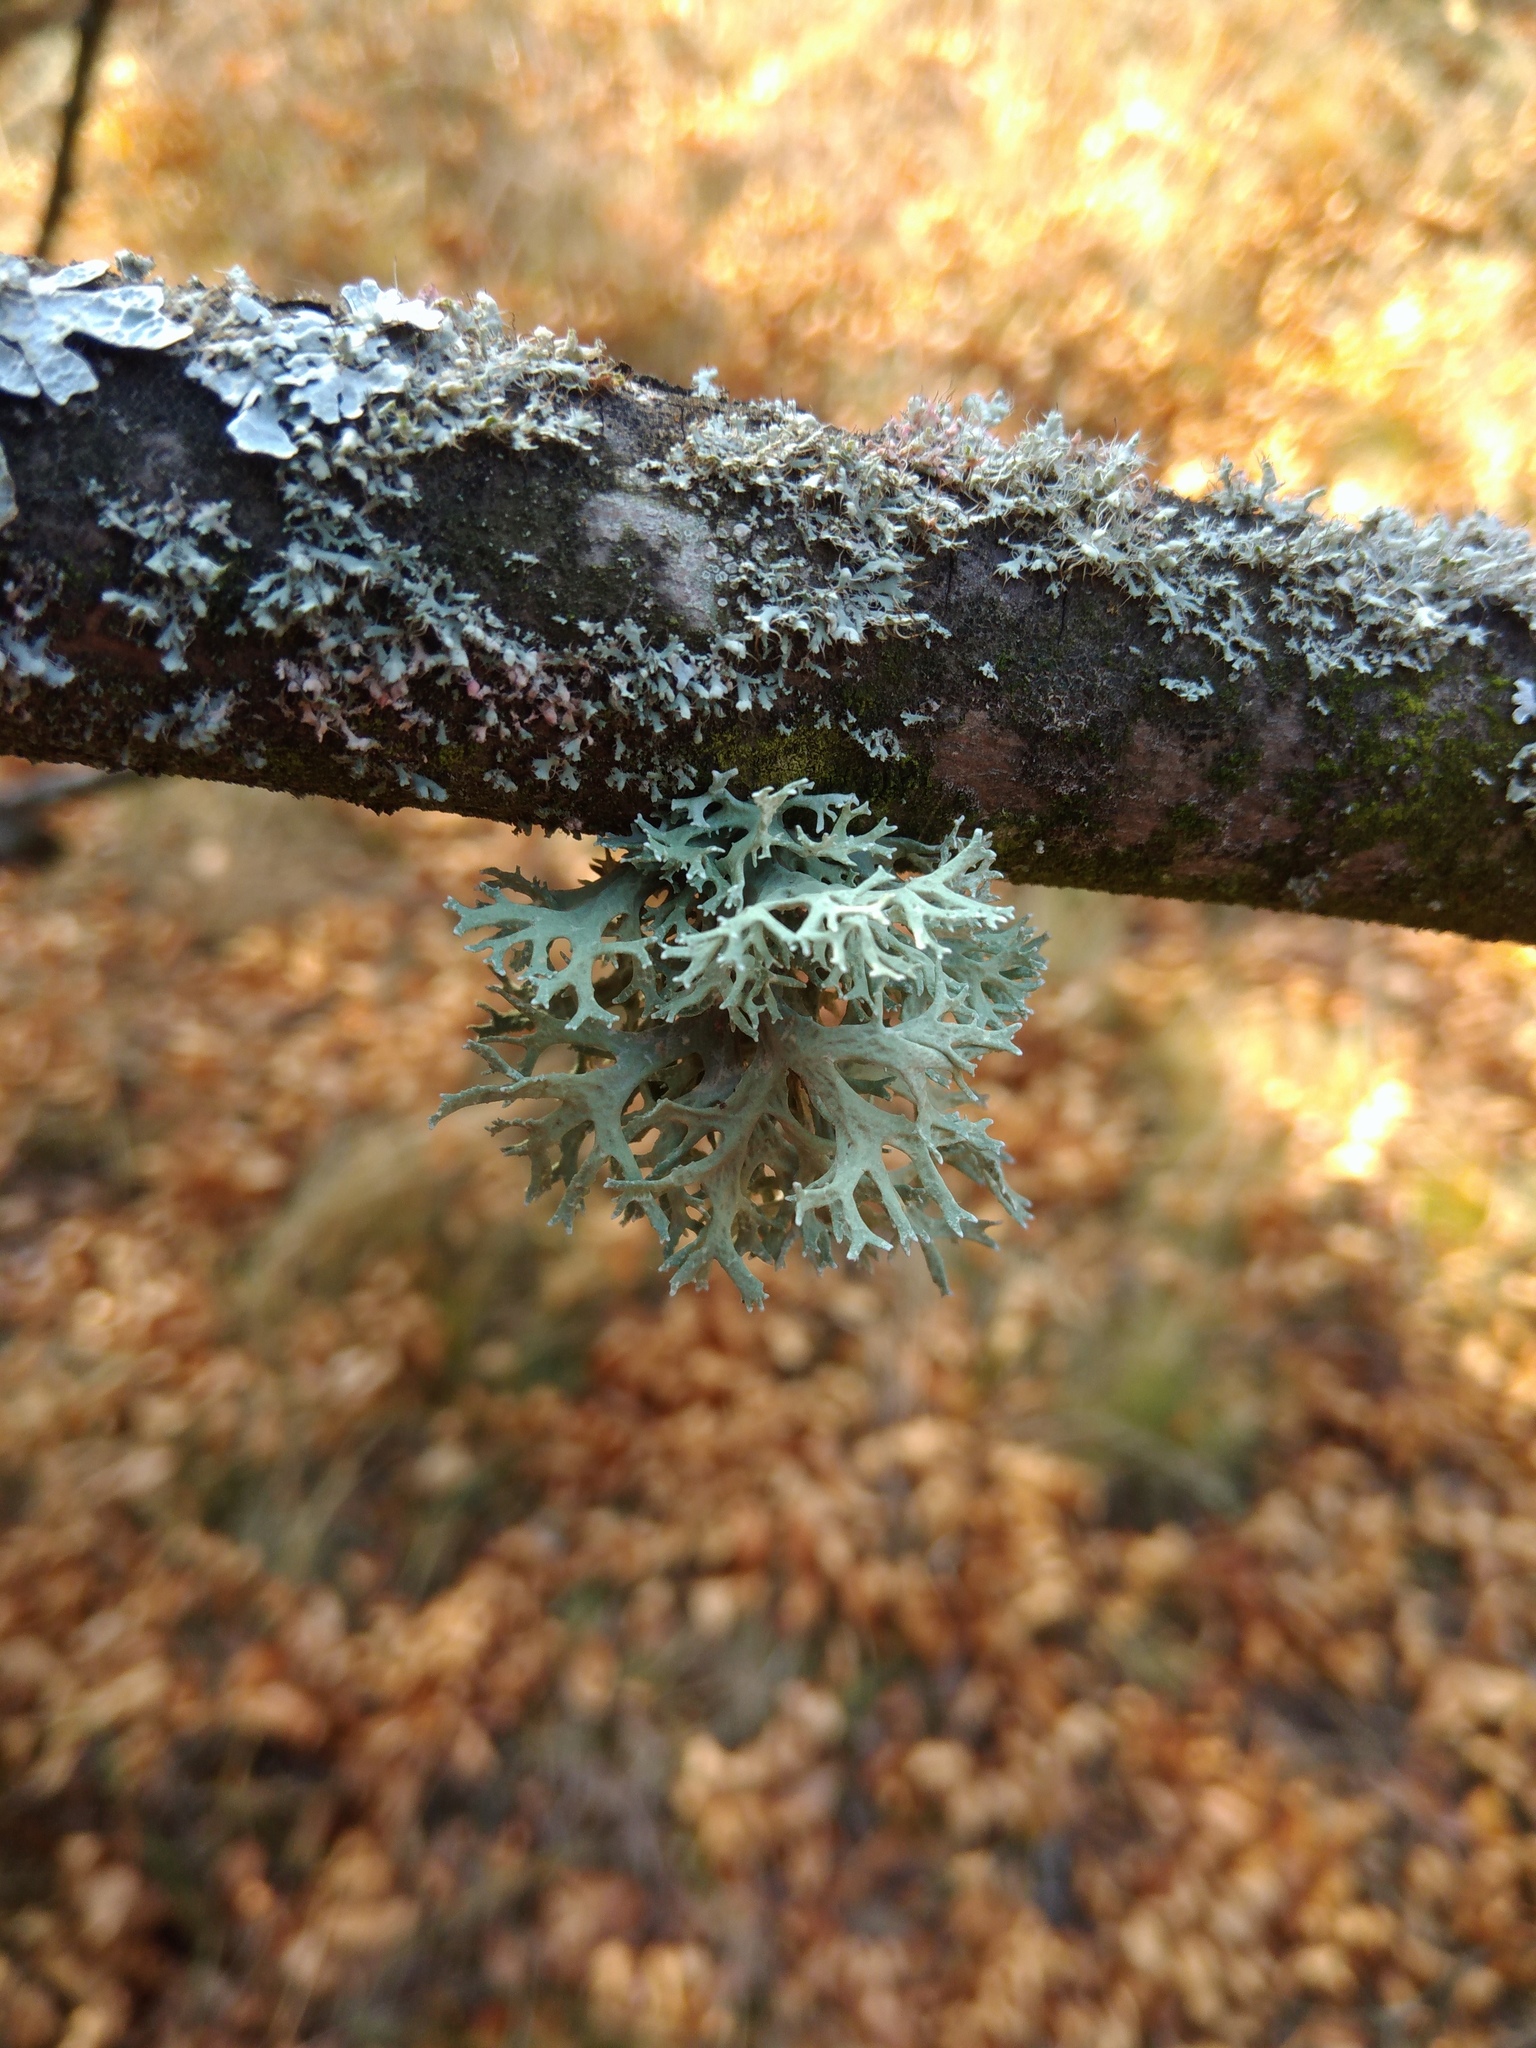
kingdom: Fungi
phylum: Ascomycota
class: Lecanoromycetes
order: Lecanorales
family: Parmeliaceae
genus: Evernia
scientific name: Evernia prunastri
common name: Oak moss
